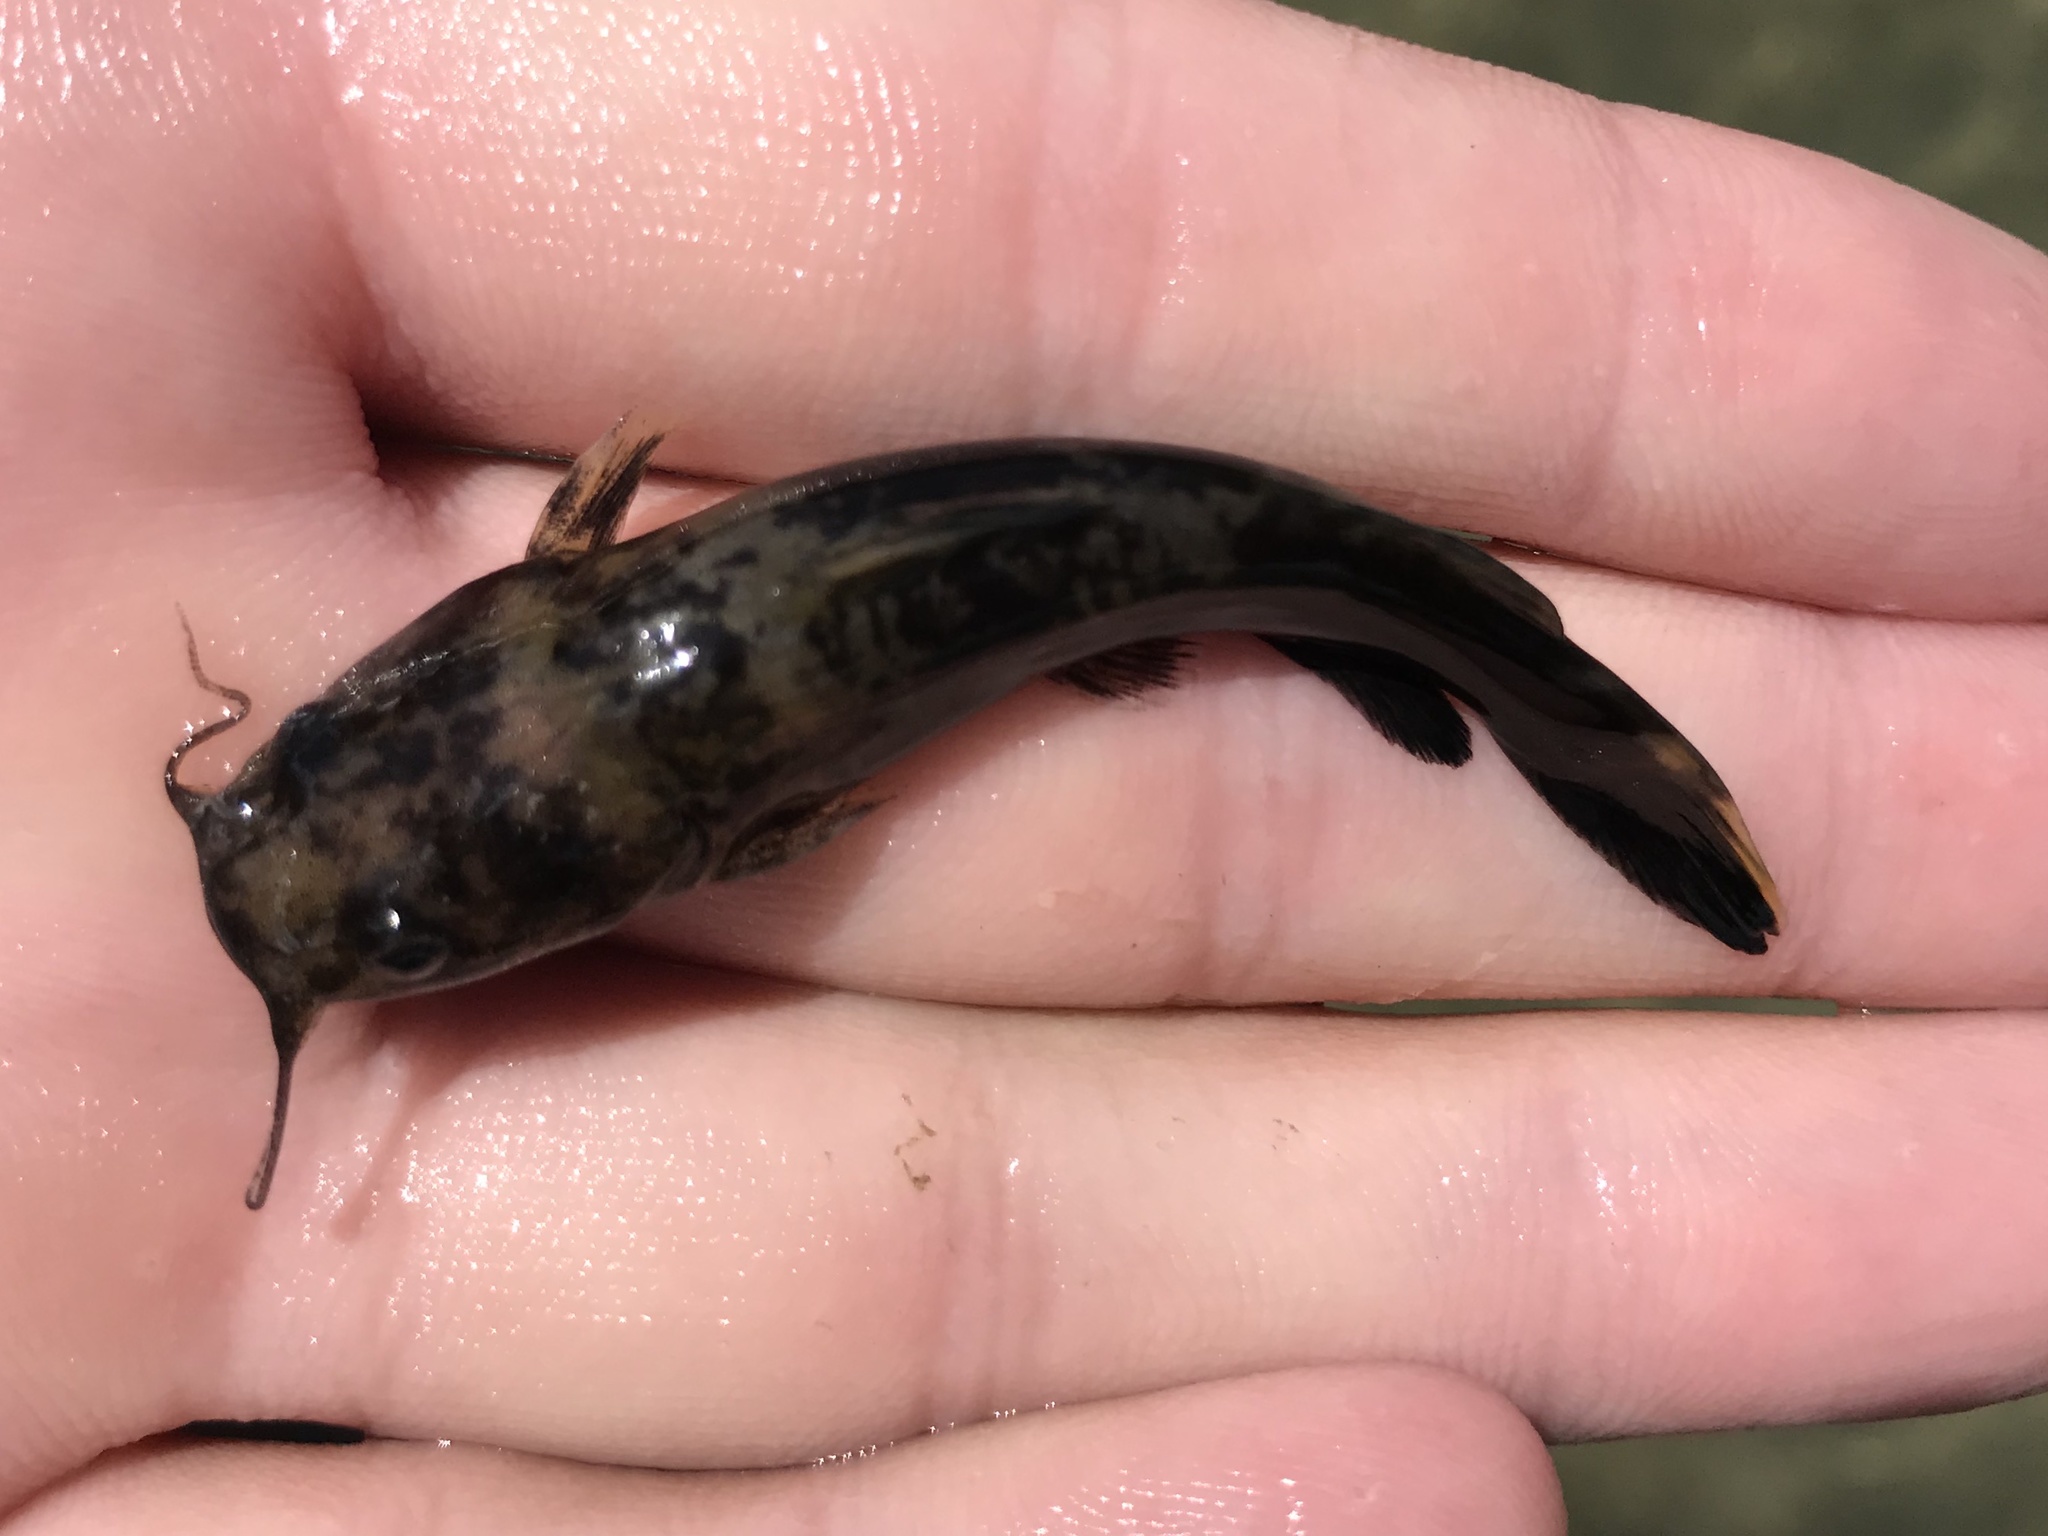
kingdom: Animalia
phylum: Chordata
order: Siluriformes
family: Ictaluridae
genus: Pylodictis
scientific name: Pylodictis olivaris
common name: Flathead catfish
